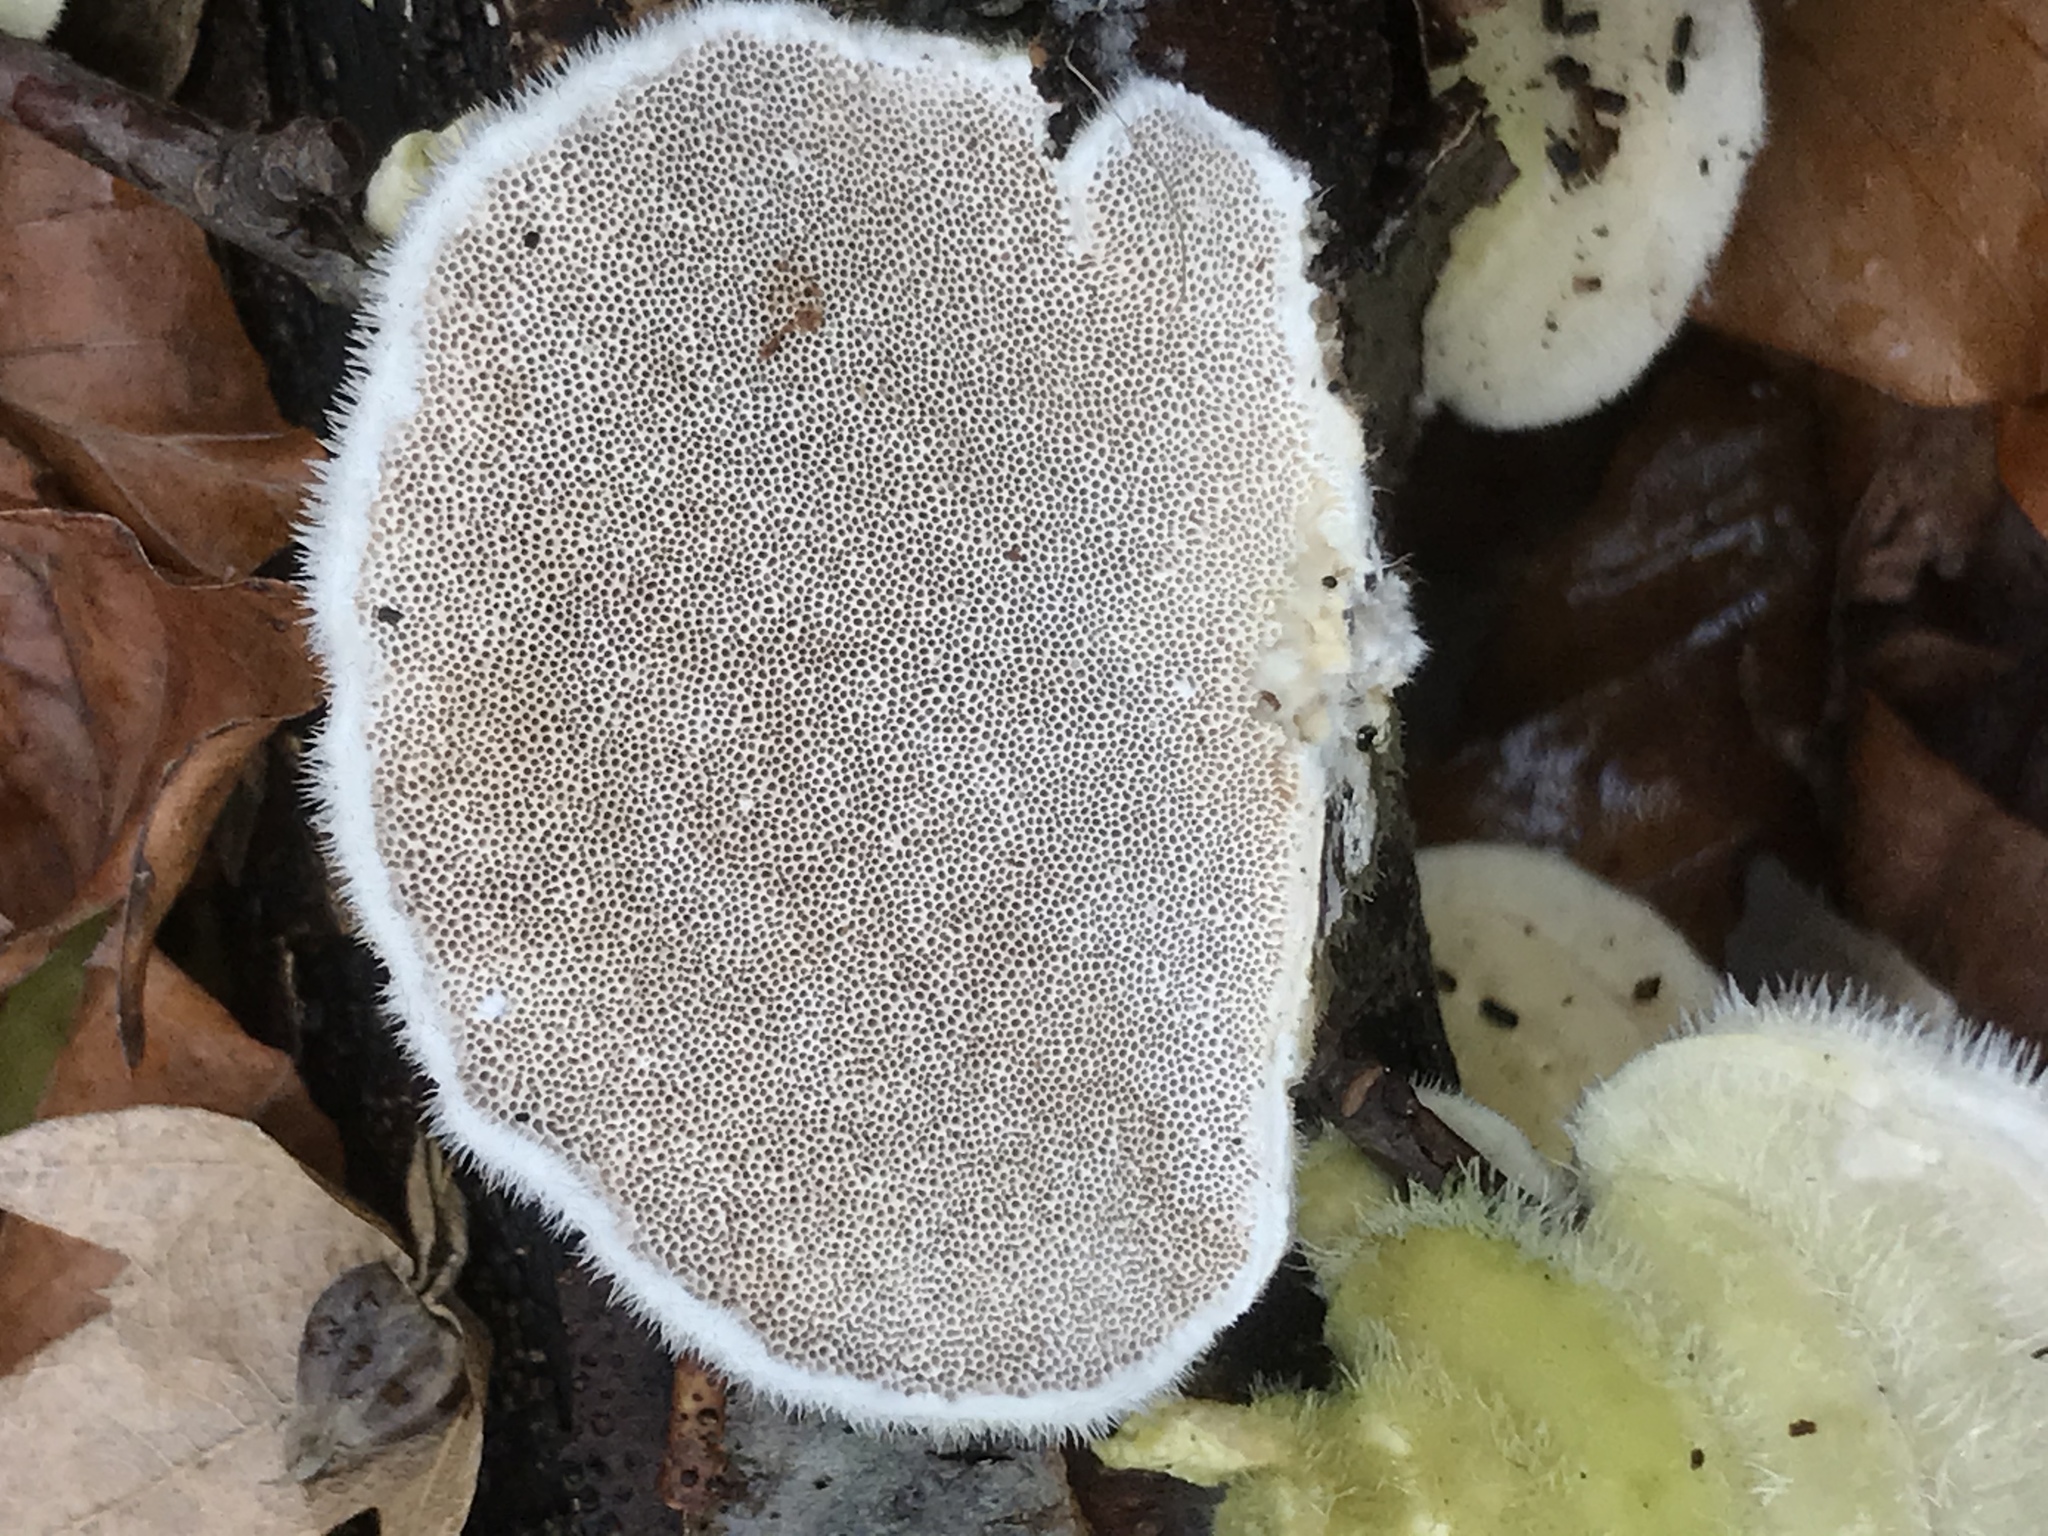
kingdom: Fungi
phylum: Basidiomycota
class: Agaricomycetes
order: Polyporales
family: Polyporaceae
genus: Trametes
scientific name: Trametes hirsuta
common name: Hairy bracket
